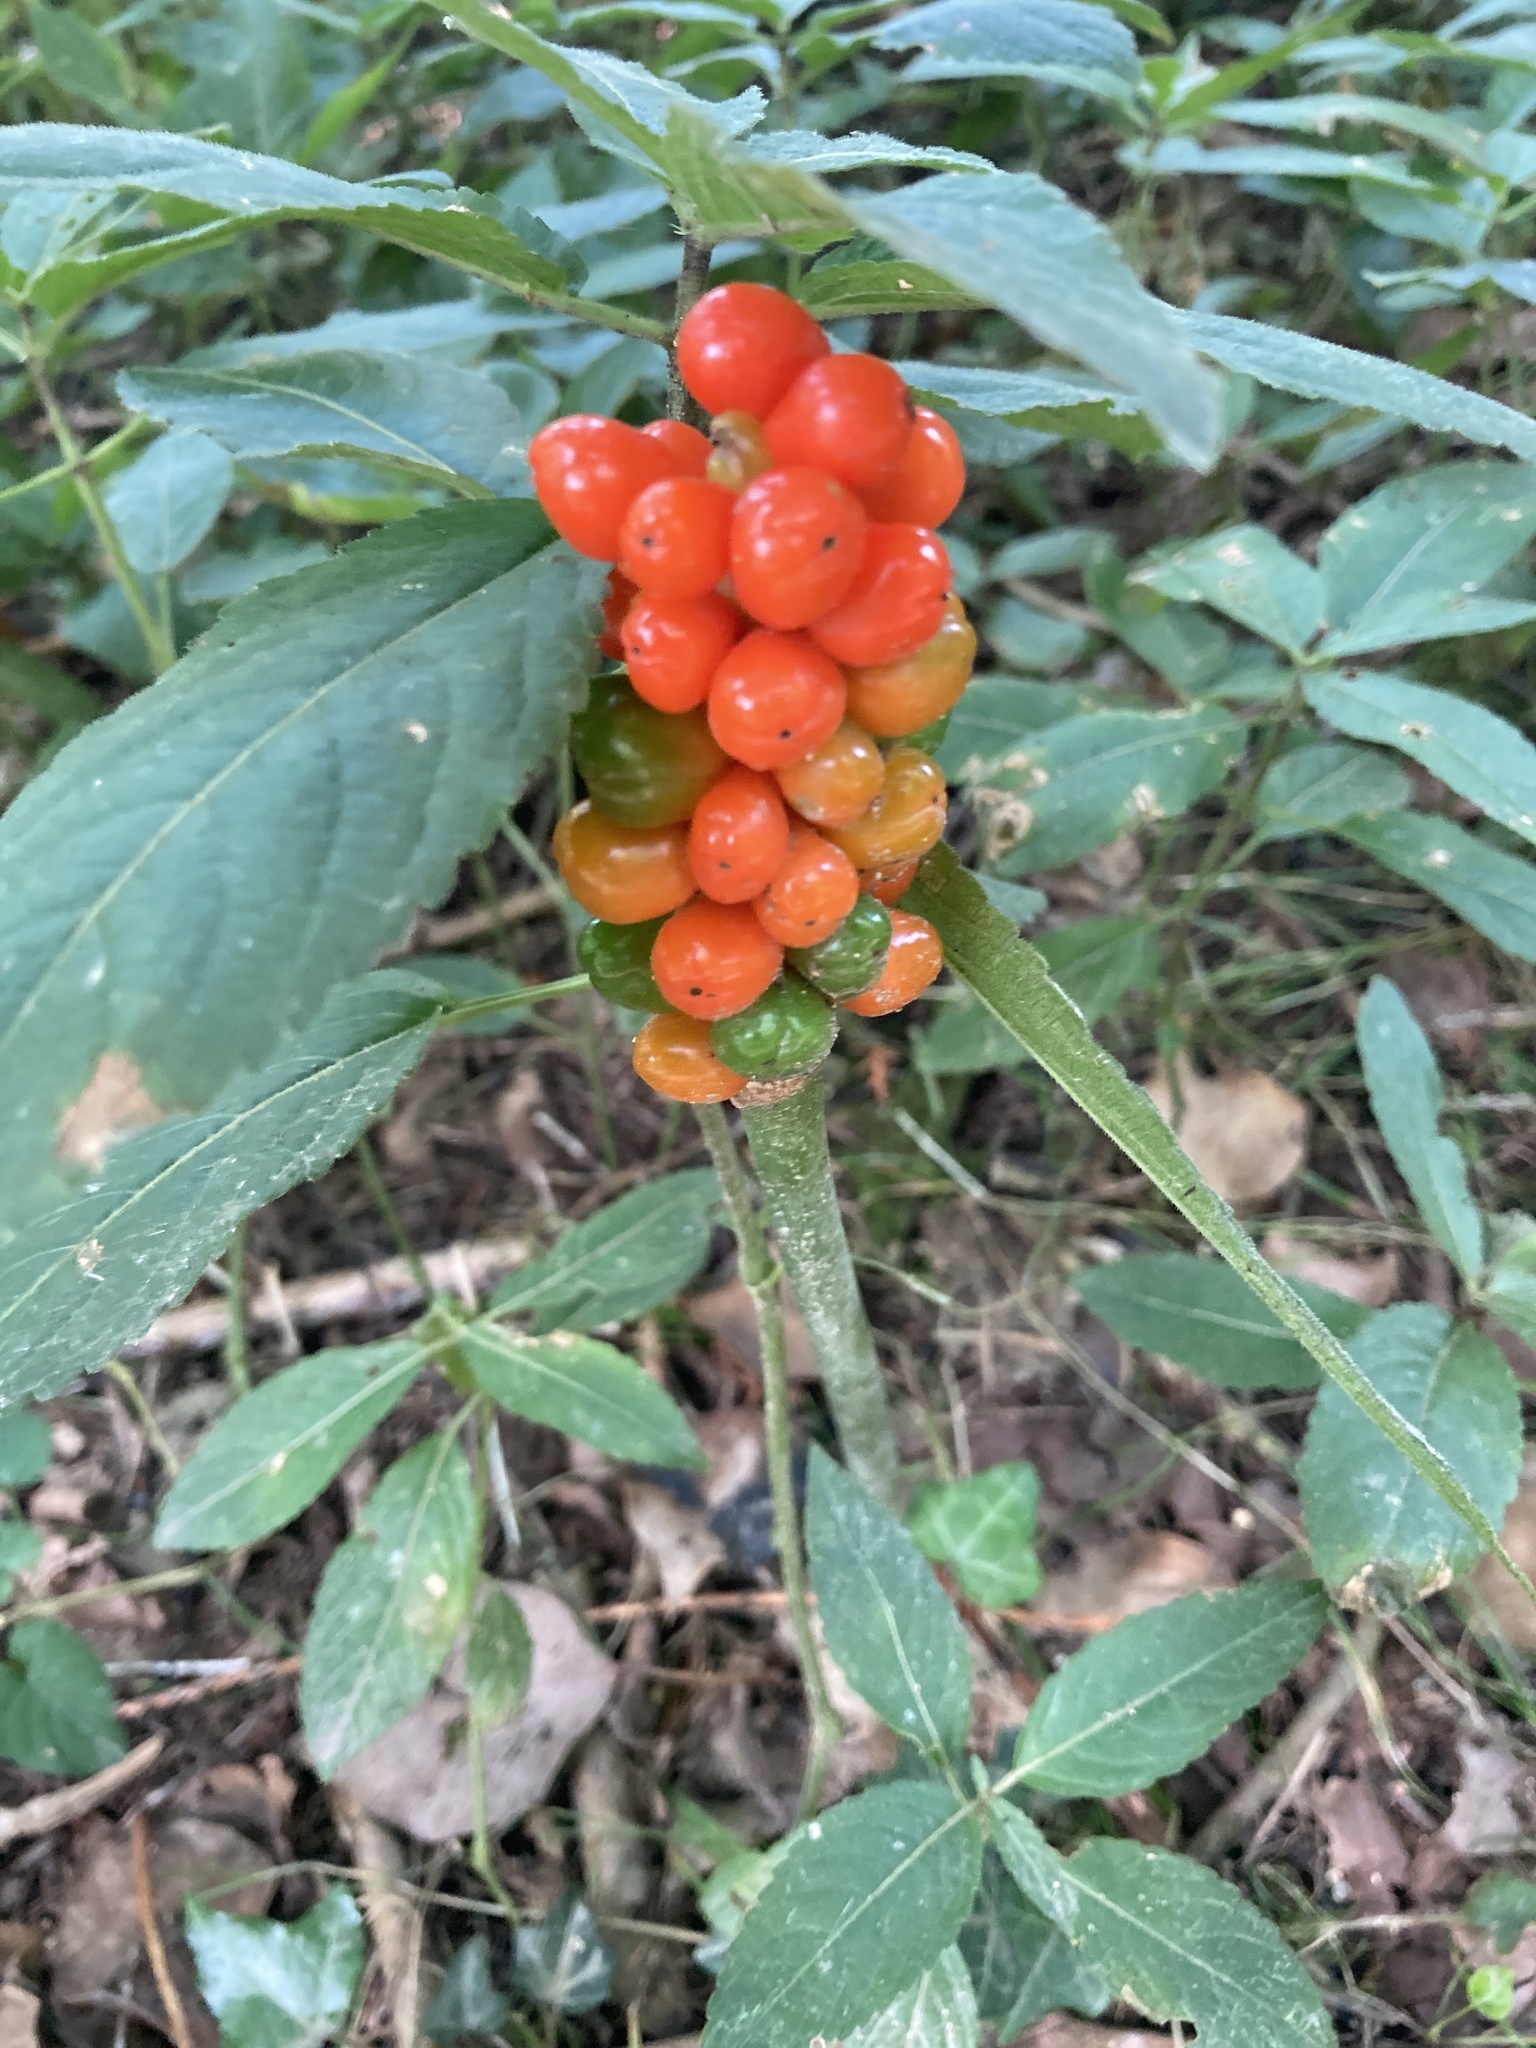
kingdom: Plantae
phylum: Tracheophyta
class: Liliopsida
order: Alismatales
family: Araceae
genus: Arum
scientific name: Arum maculatum
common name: Lords-and-ladies
